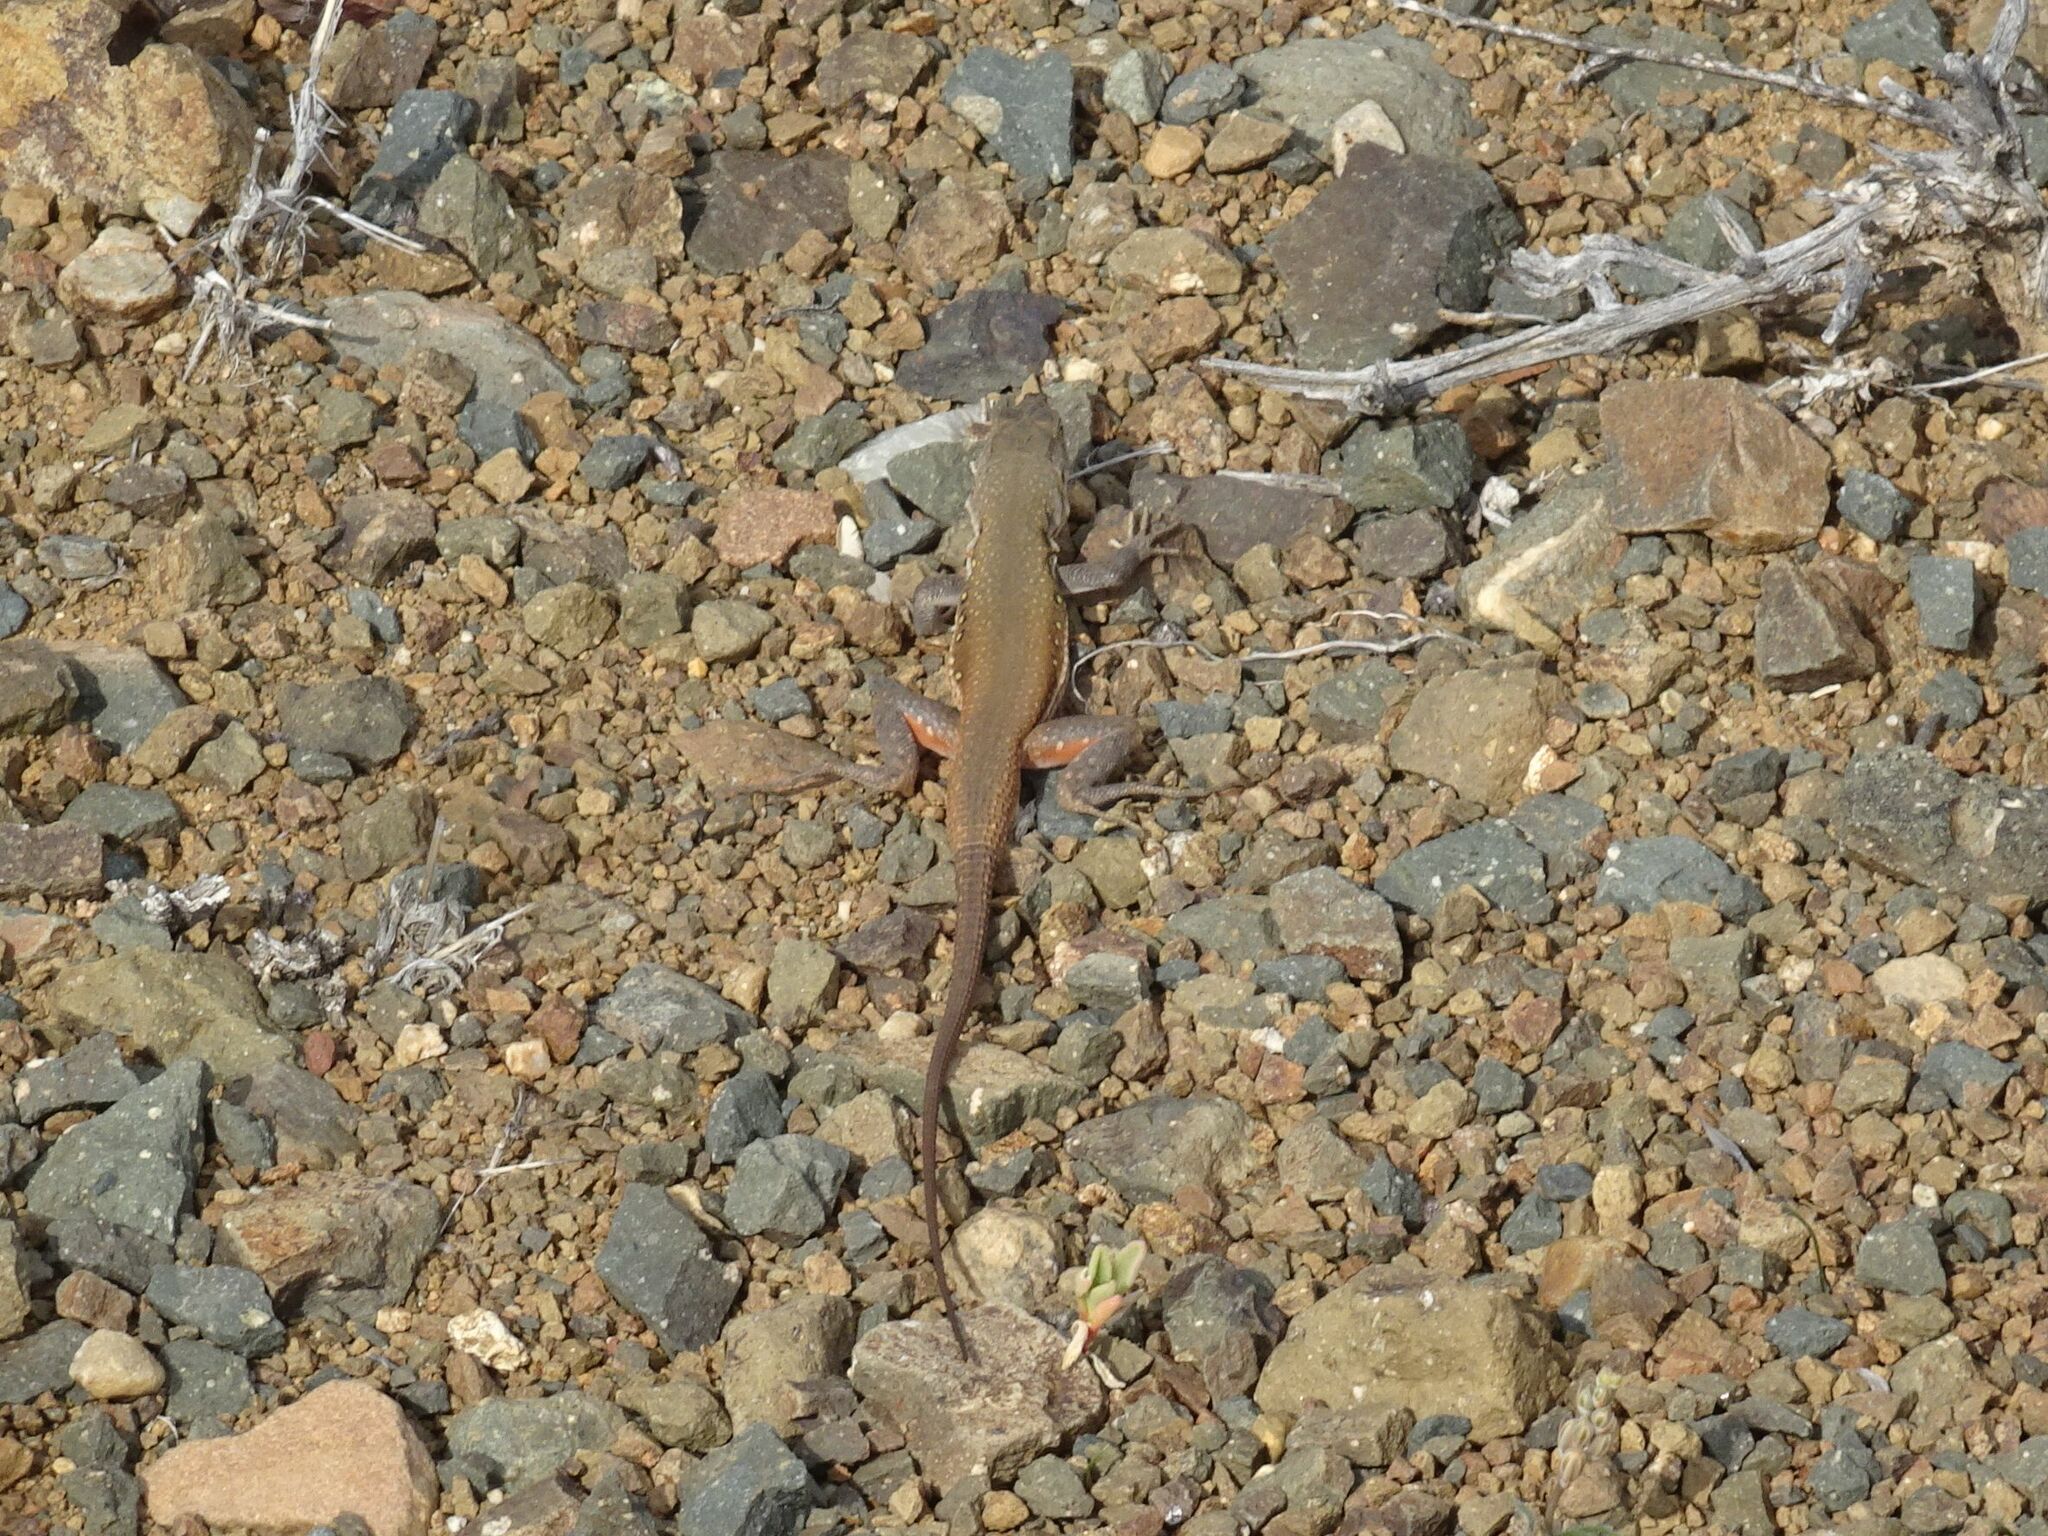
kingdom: Animalia
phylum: Chordata
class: Squamata
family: Lacertidae
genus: Pedioplanis
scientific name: Pedioplanis lineoocellata
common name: Spotted sand lizard
